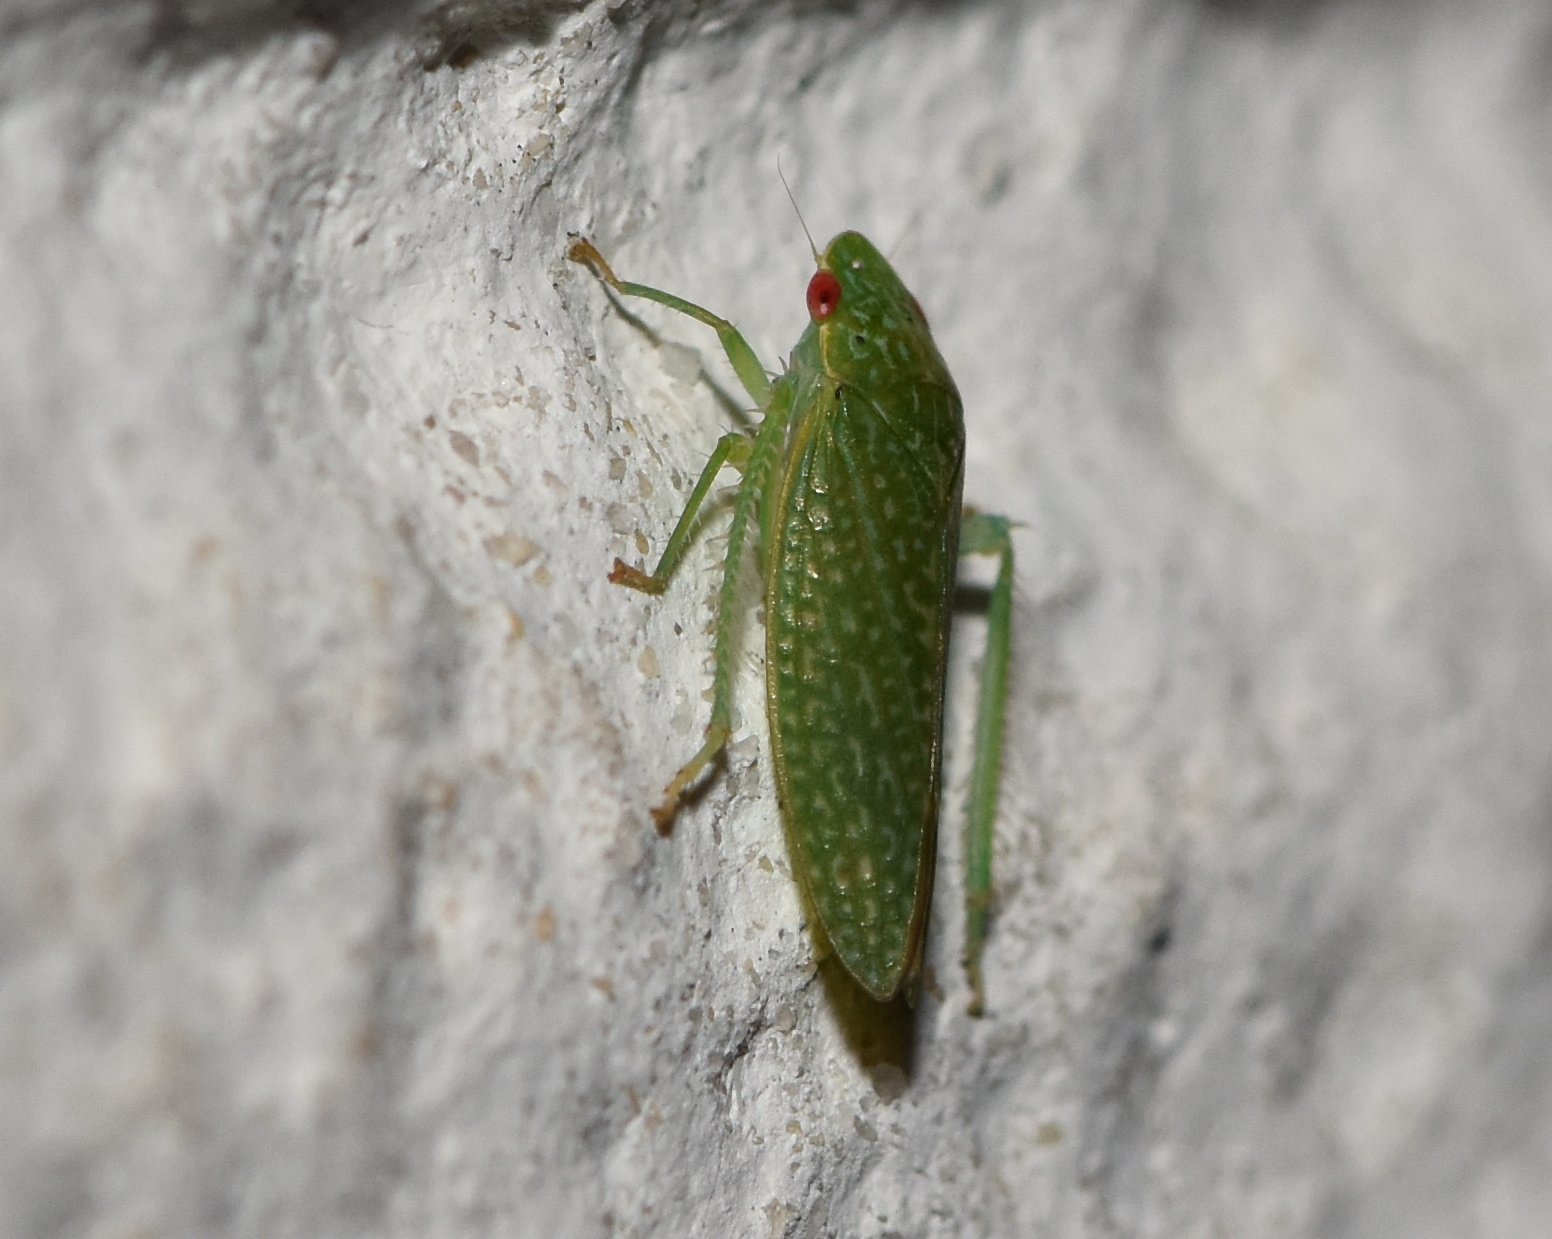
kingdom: Animalia
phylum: Arthropoda
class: Insecta
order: Hemiptera
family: Cicadellidae
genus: Rugosana
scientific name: Rugosana querci
